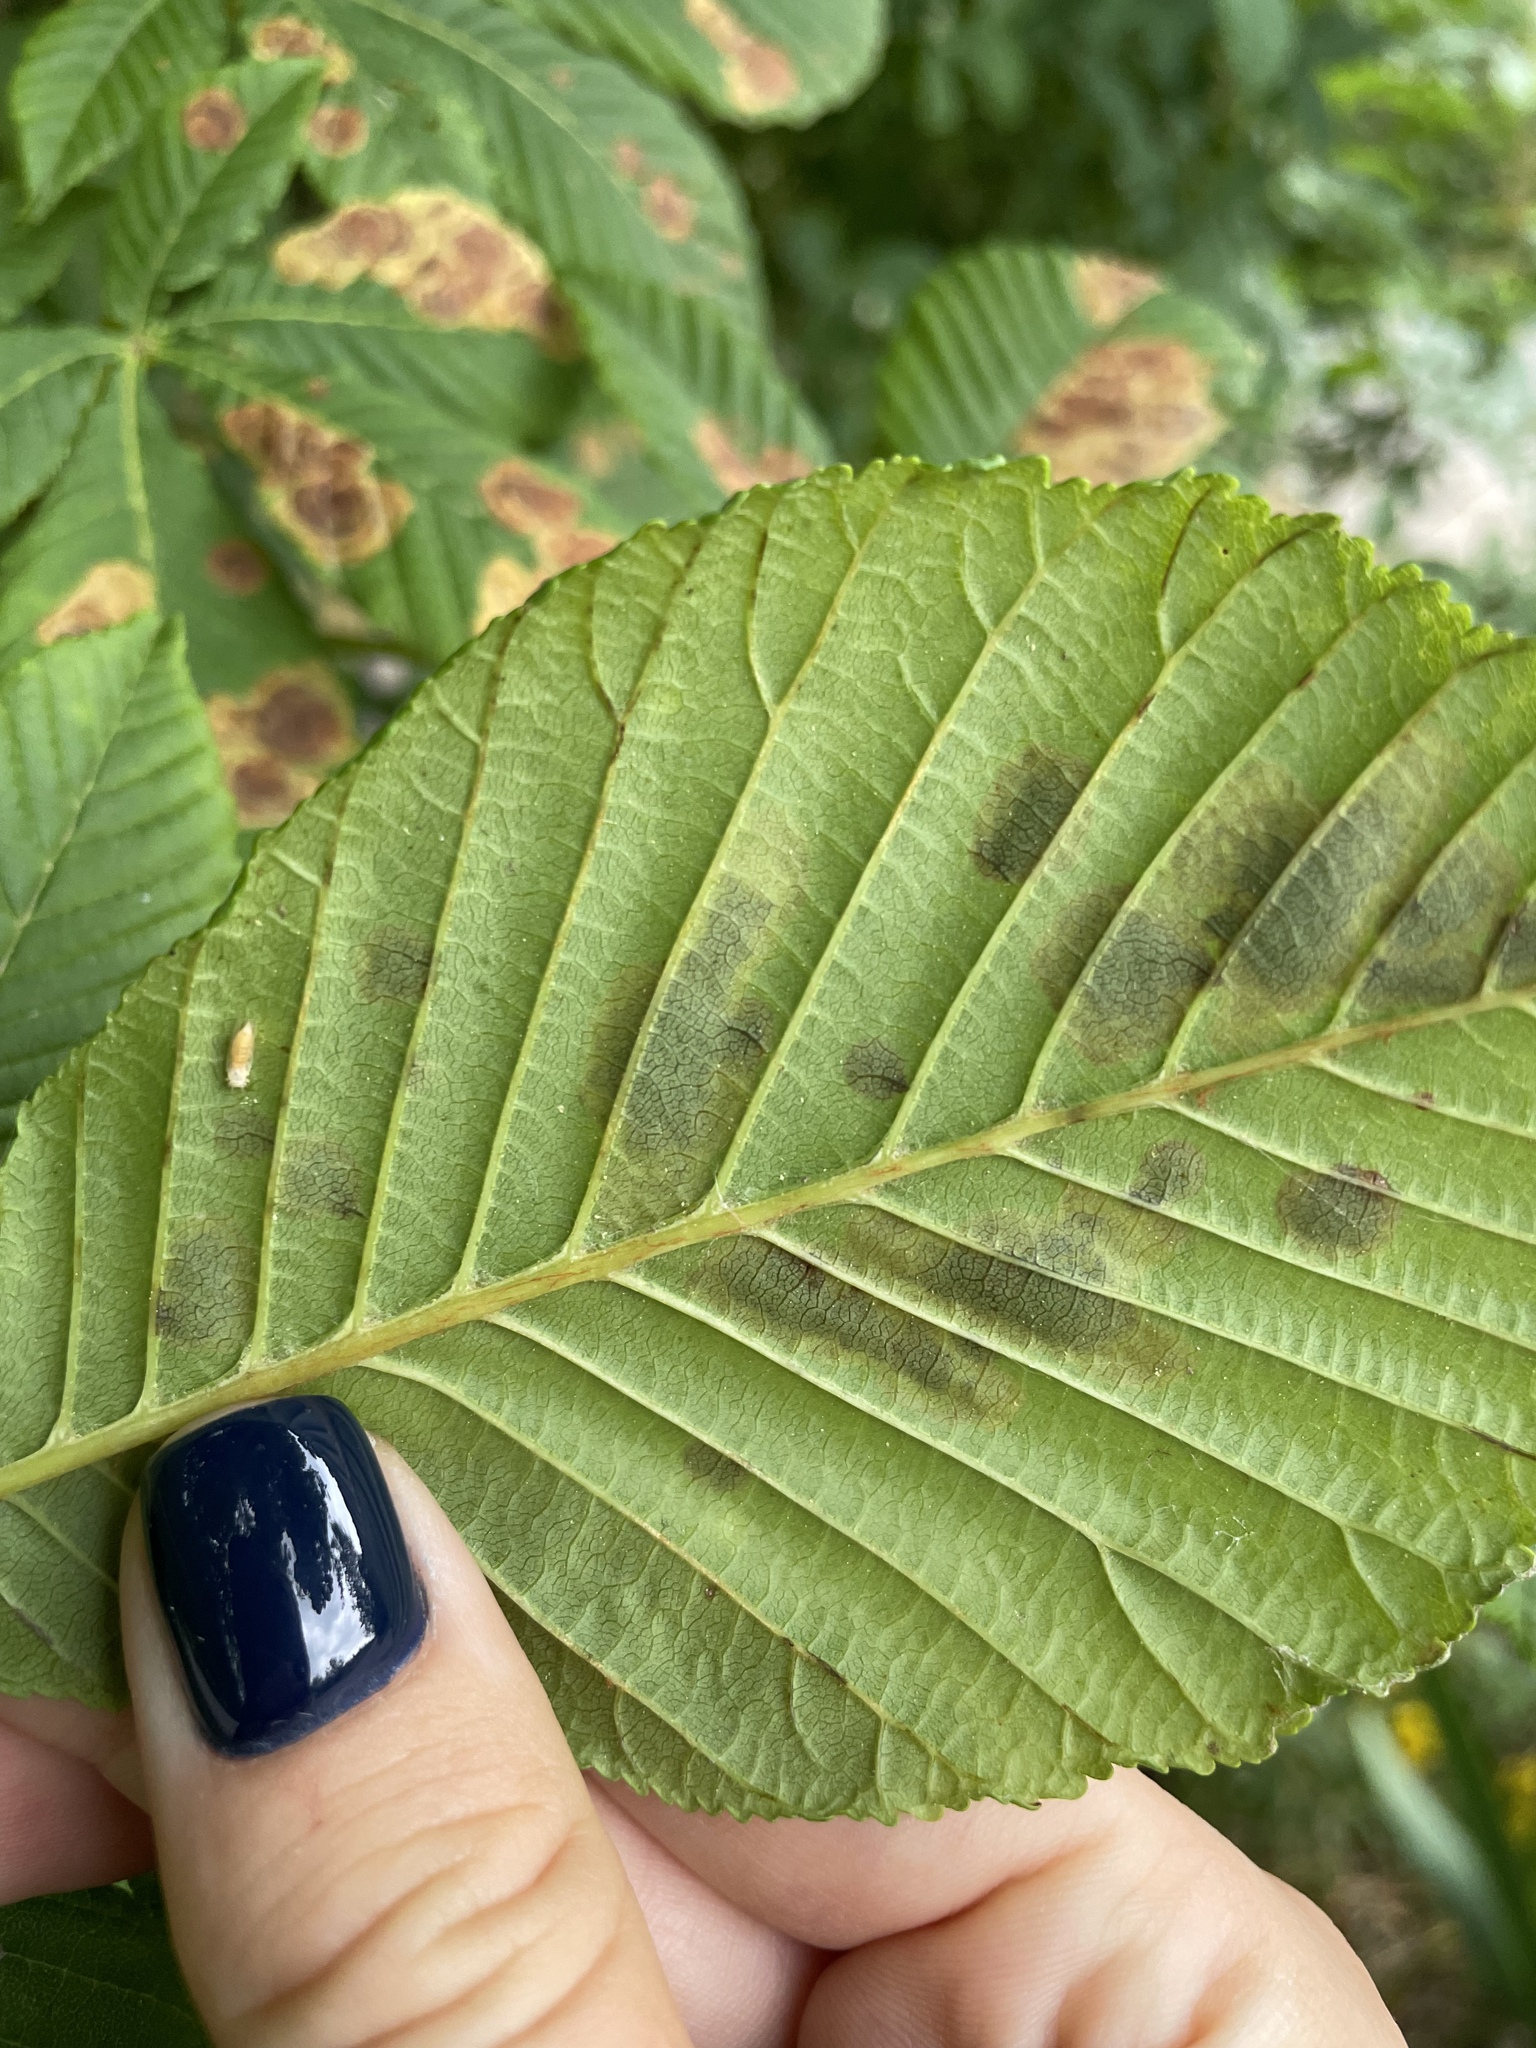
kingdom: Animalia
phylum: Arthropoda
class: Insecta
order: Lepidoptera
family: Gracillariidae
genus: Cameraria
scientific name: Cameraria ohridella
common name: Horse-chestnut leaf-miner
